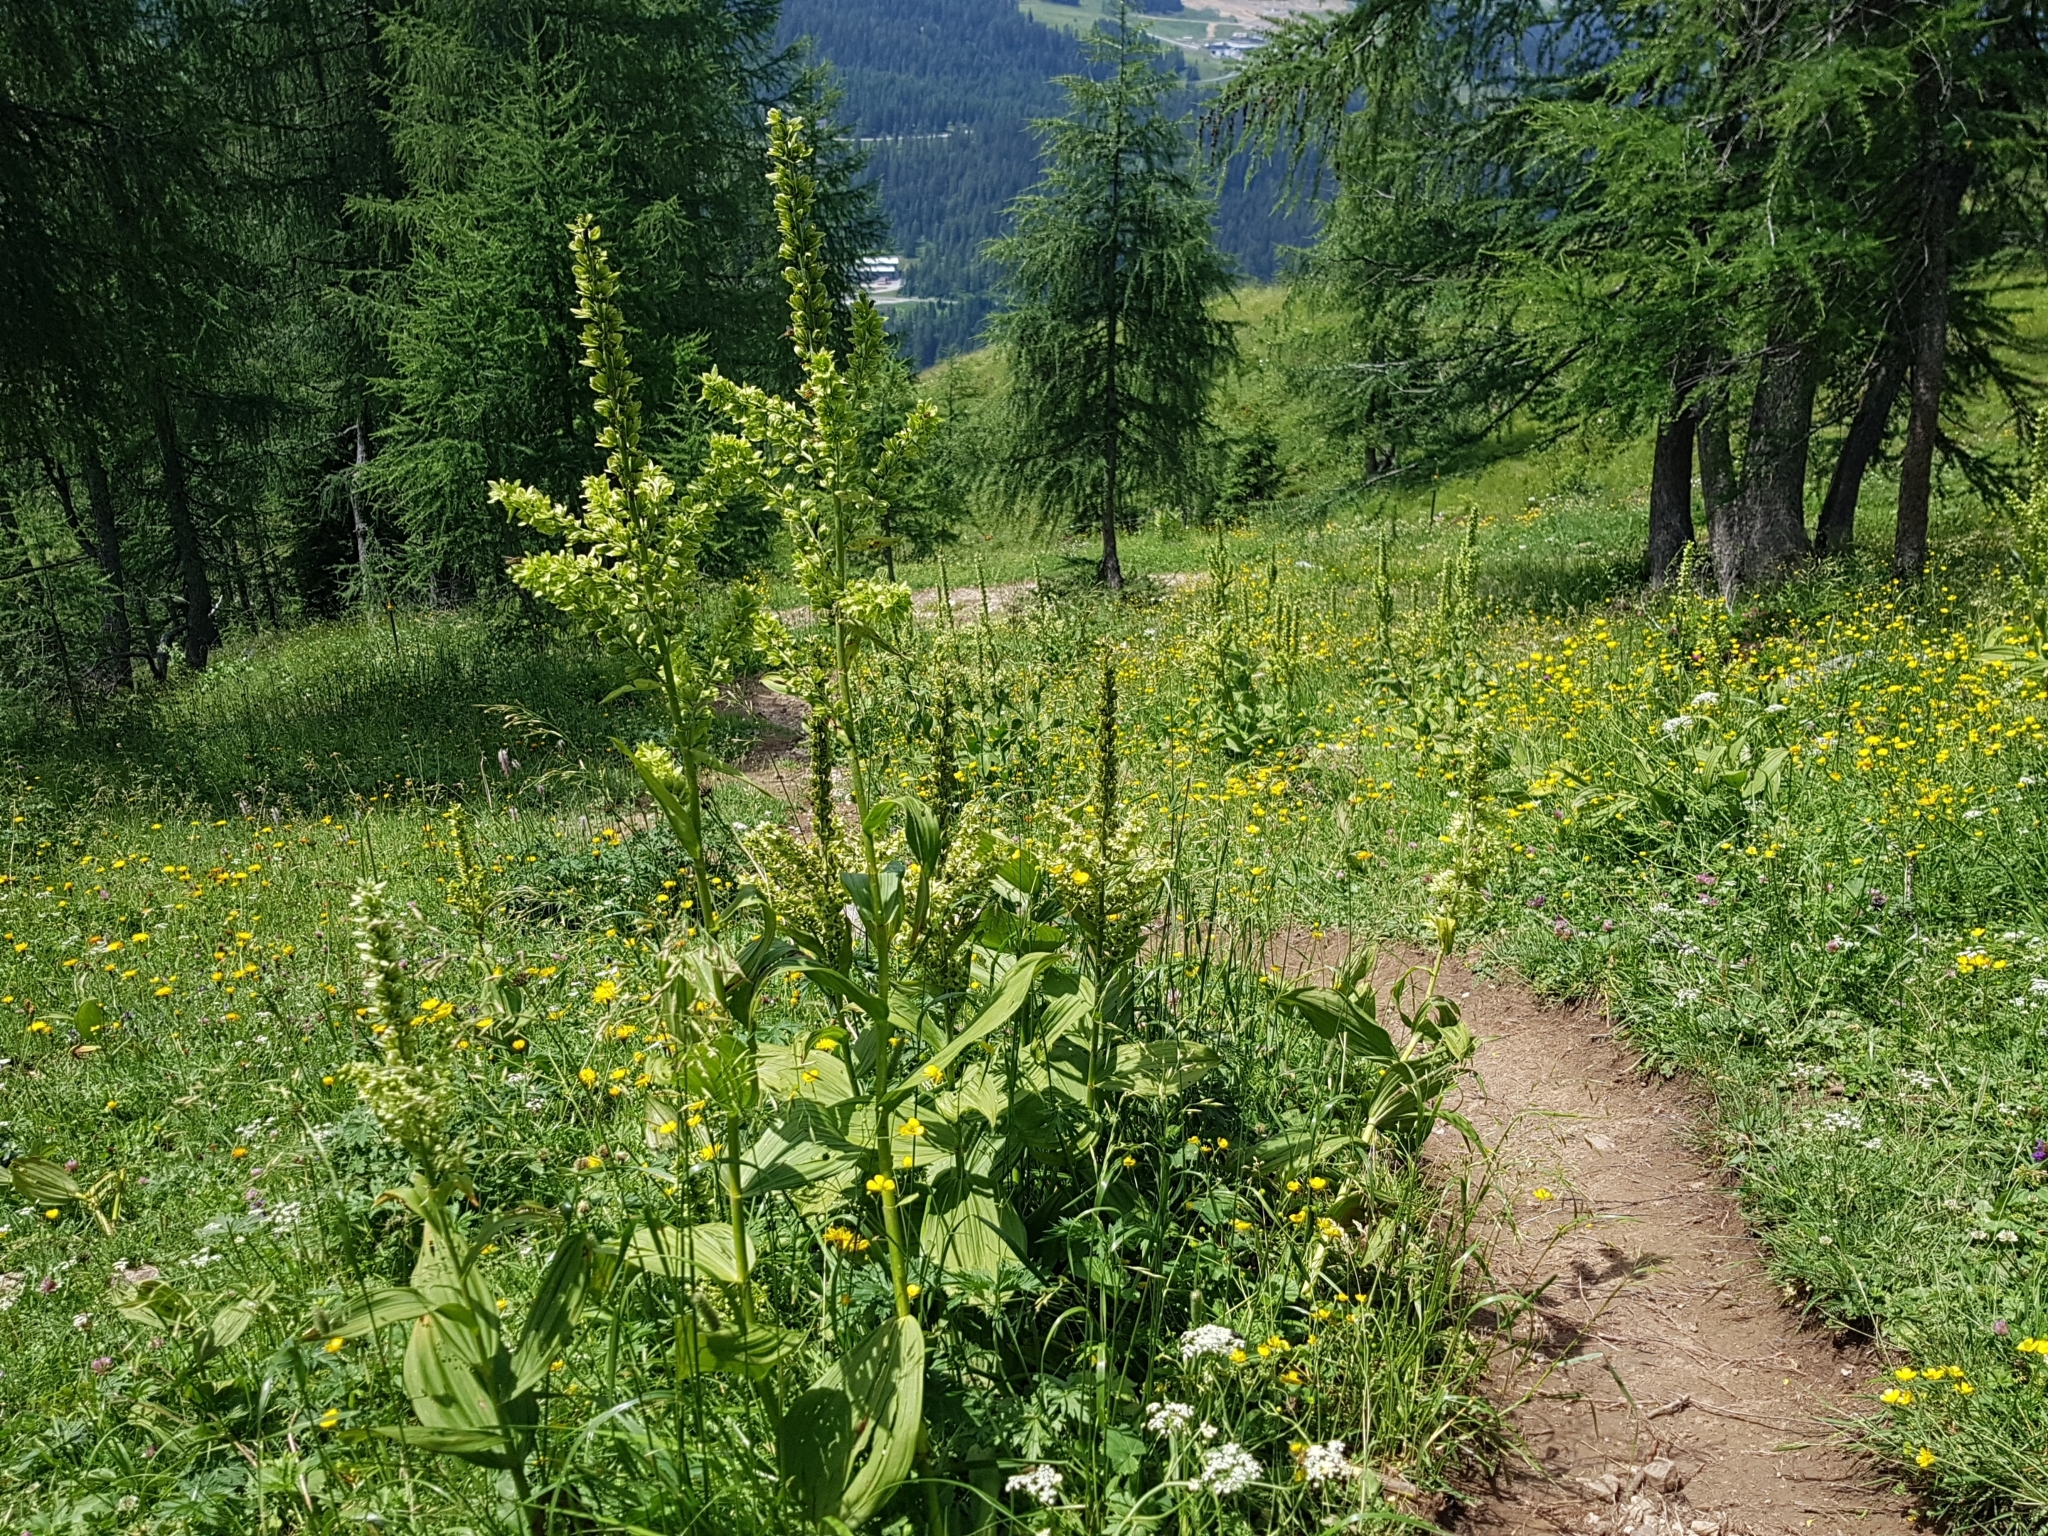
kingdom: Plantae
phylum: Tracheophyta
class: Liliopsida
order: Liliales
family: Melanthiaceae
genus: Veratrum
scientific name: Veratrum lobelianum
